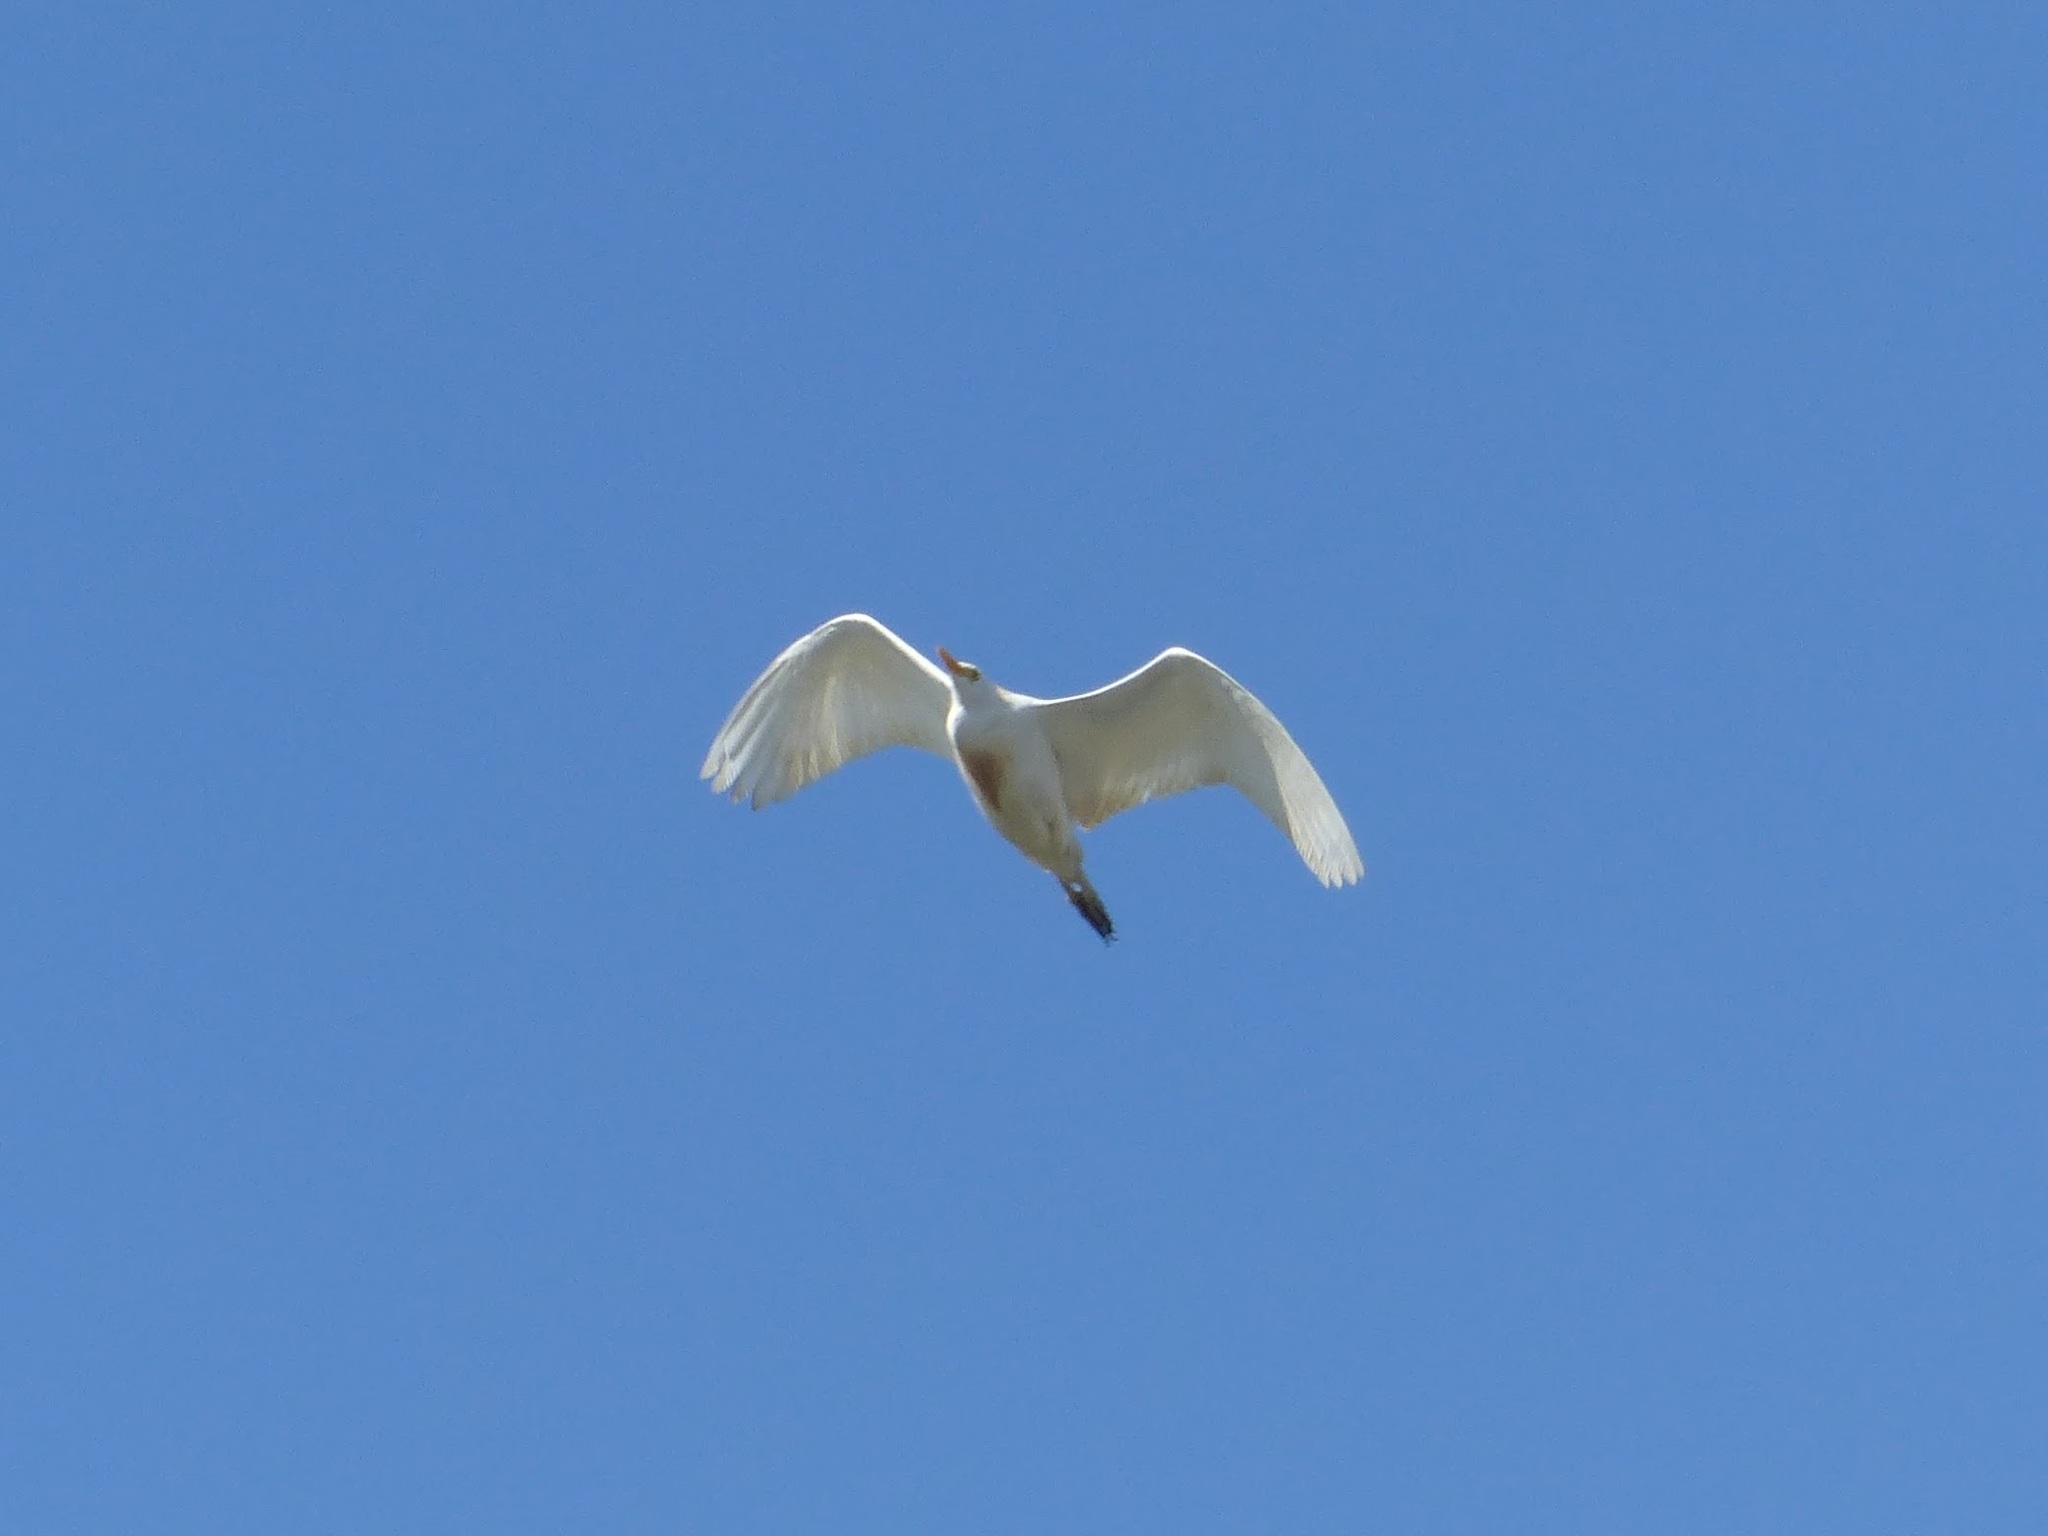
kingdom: Animalia
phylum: Chordata
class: Aves
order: Pelecaniformes
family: Ardeidae
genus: Bubulcus
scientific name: Bubulcus ibis
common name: Cattle egret
